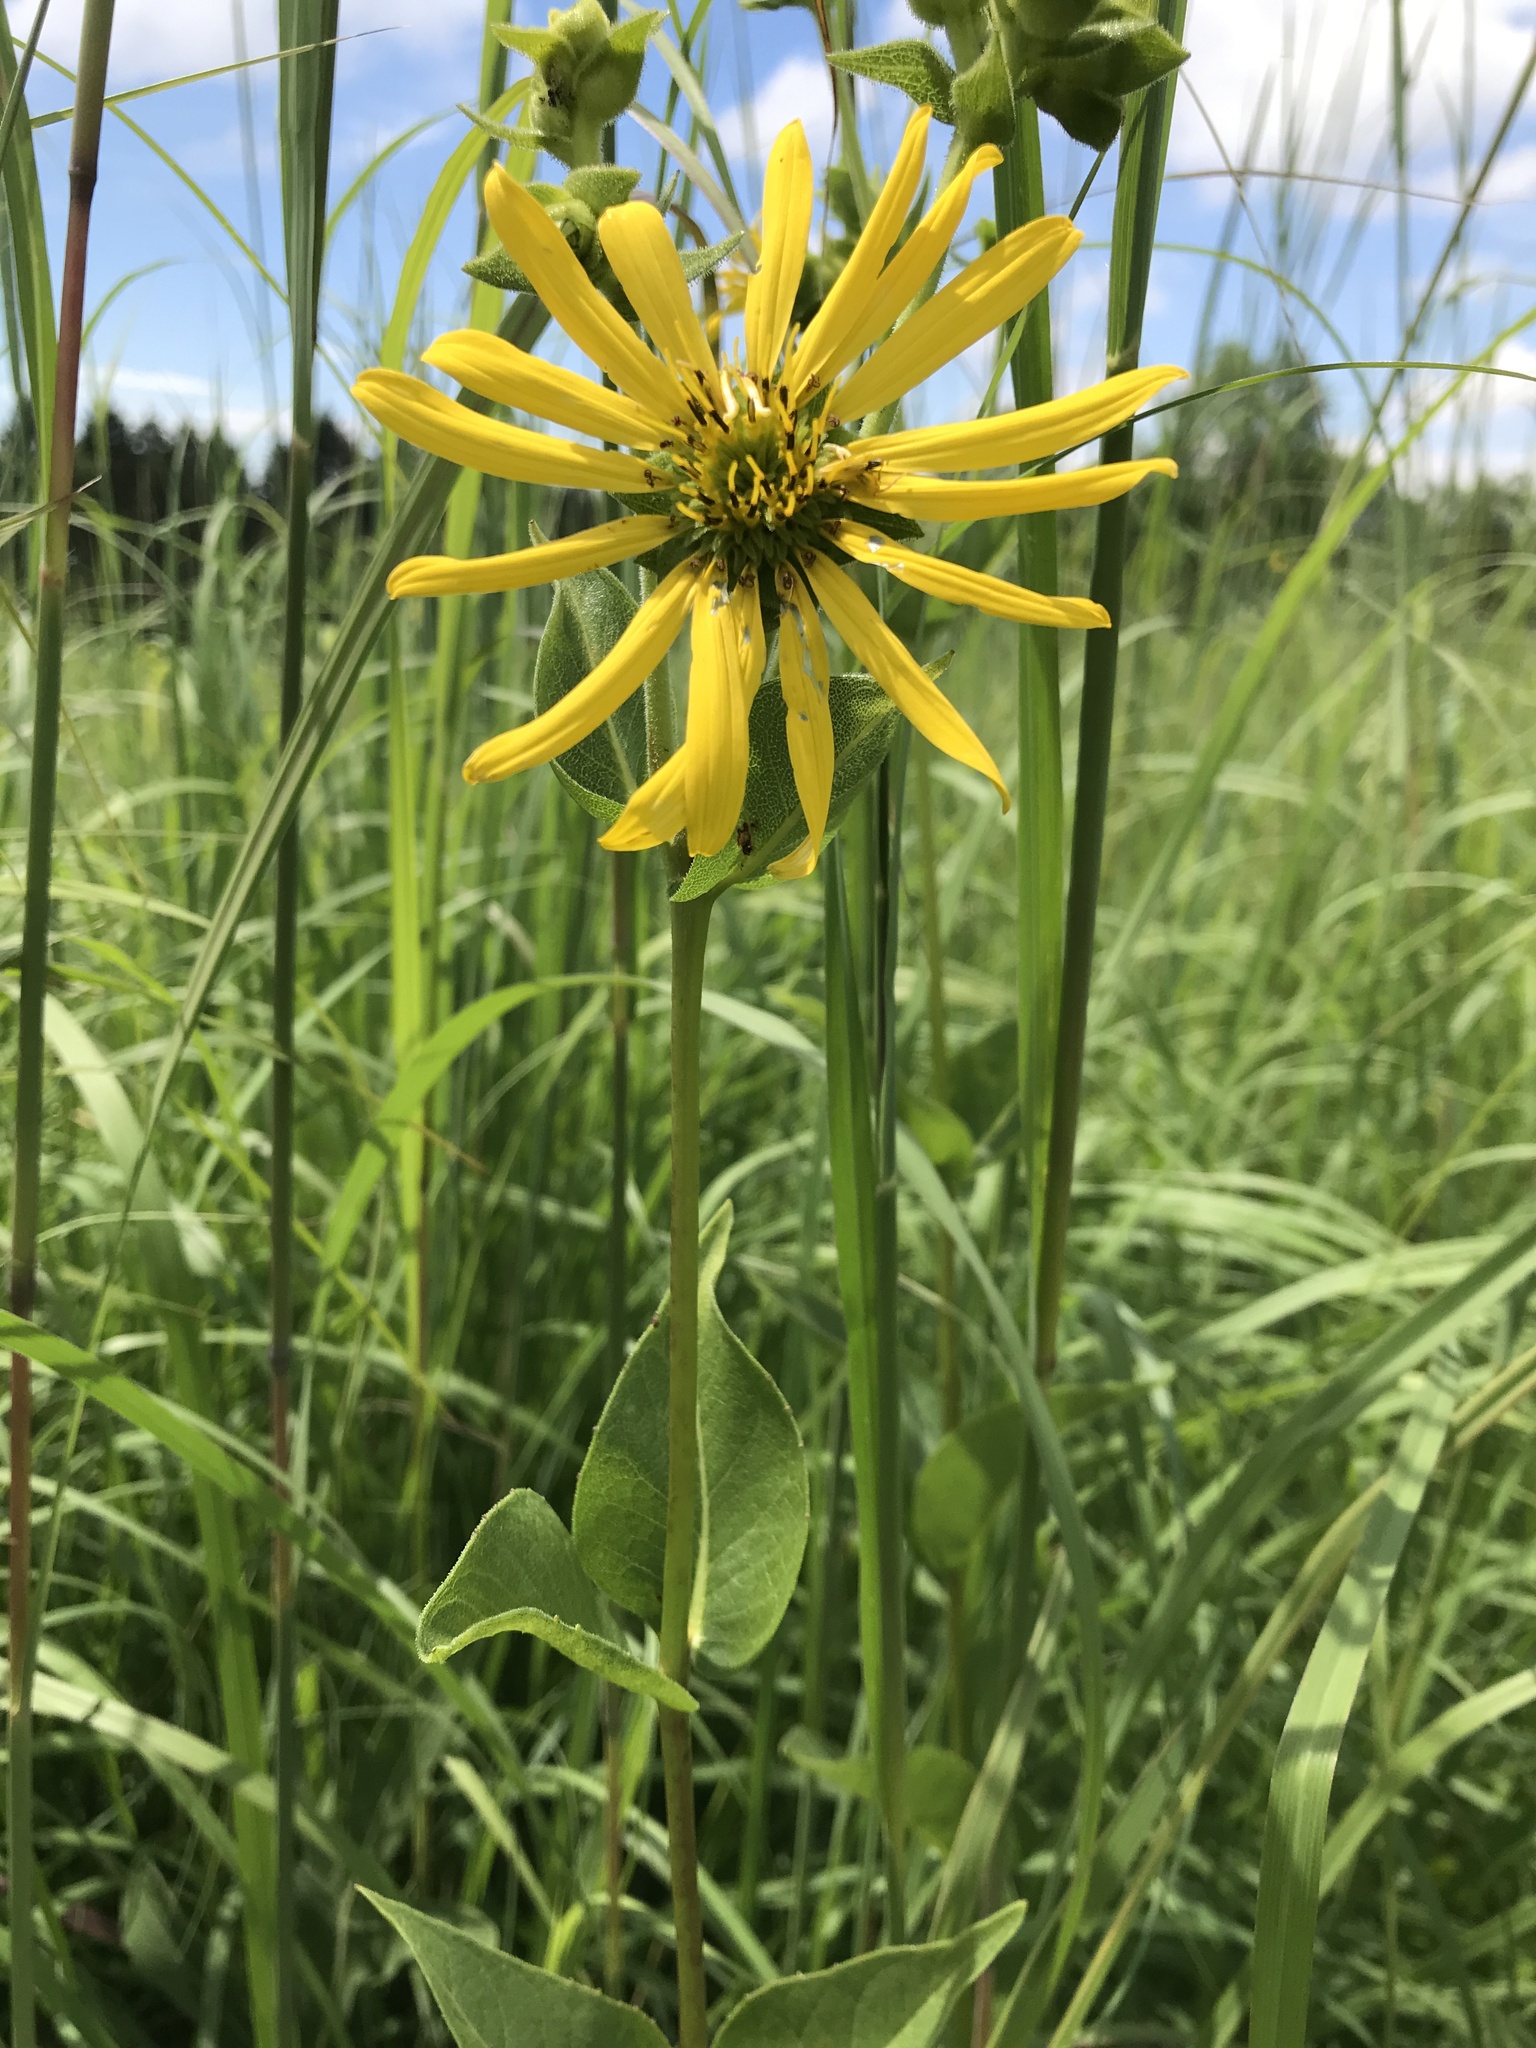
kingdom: Plantae
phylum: Tracheophyta
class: Magnoliopsida
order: Asterales
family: Asteraceae
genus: Silphium
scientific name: Silphium integrifolium
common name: Whole-leaf rosinweed
